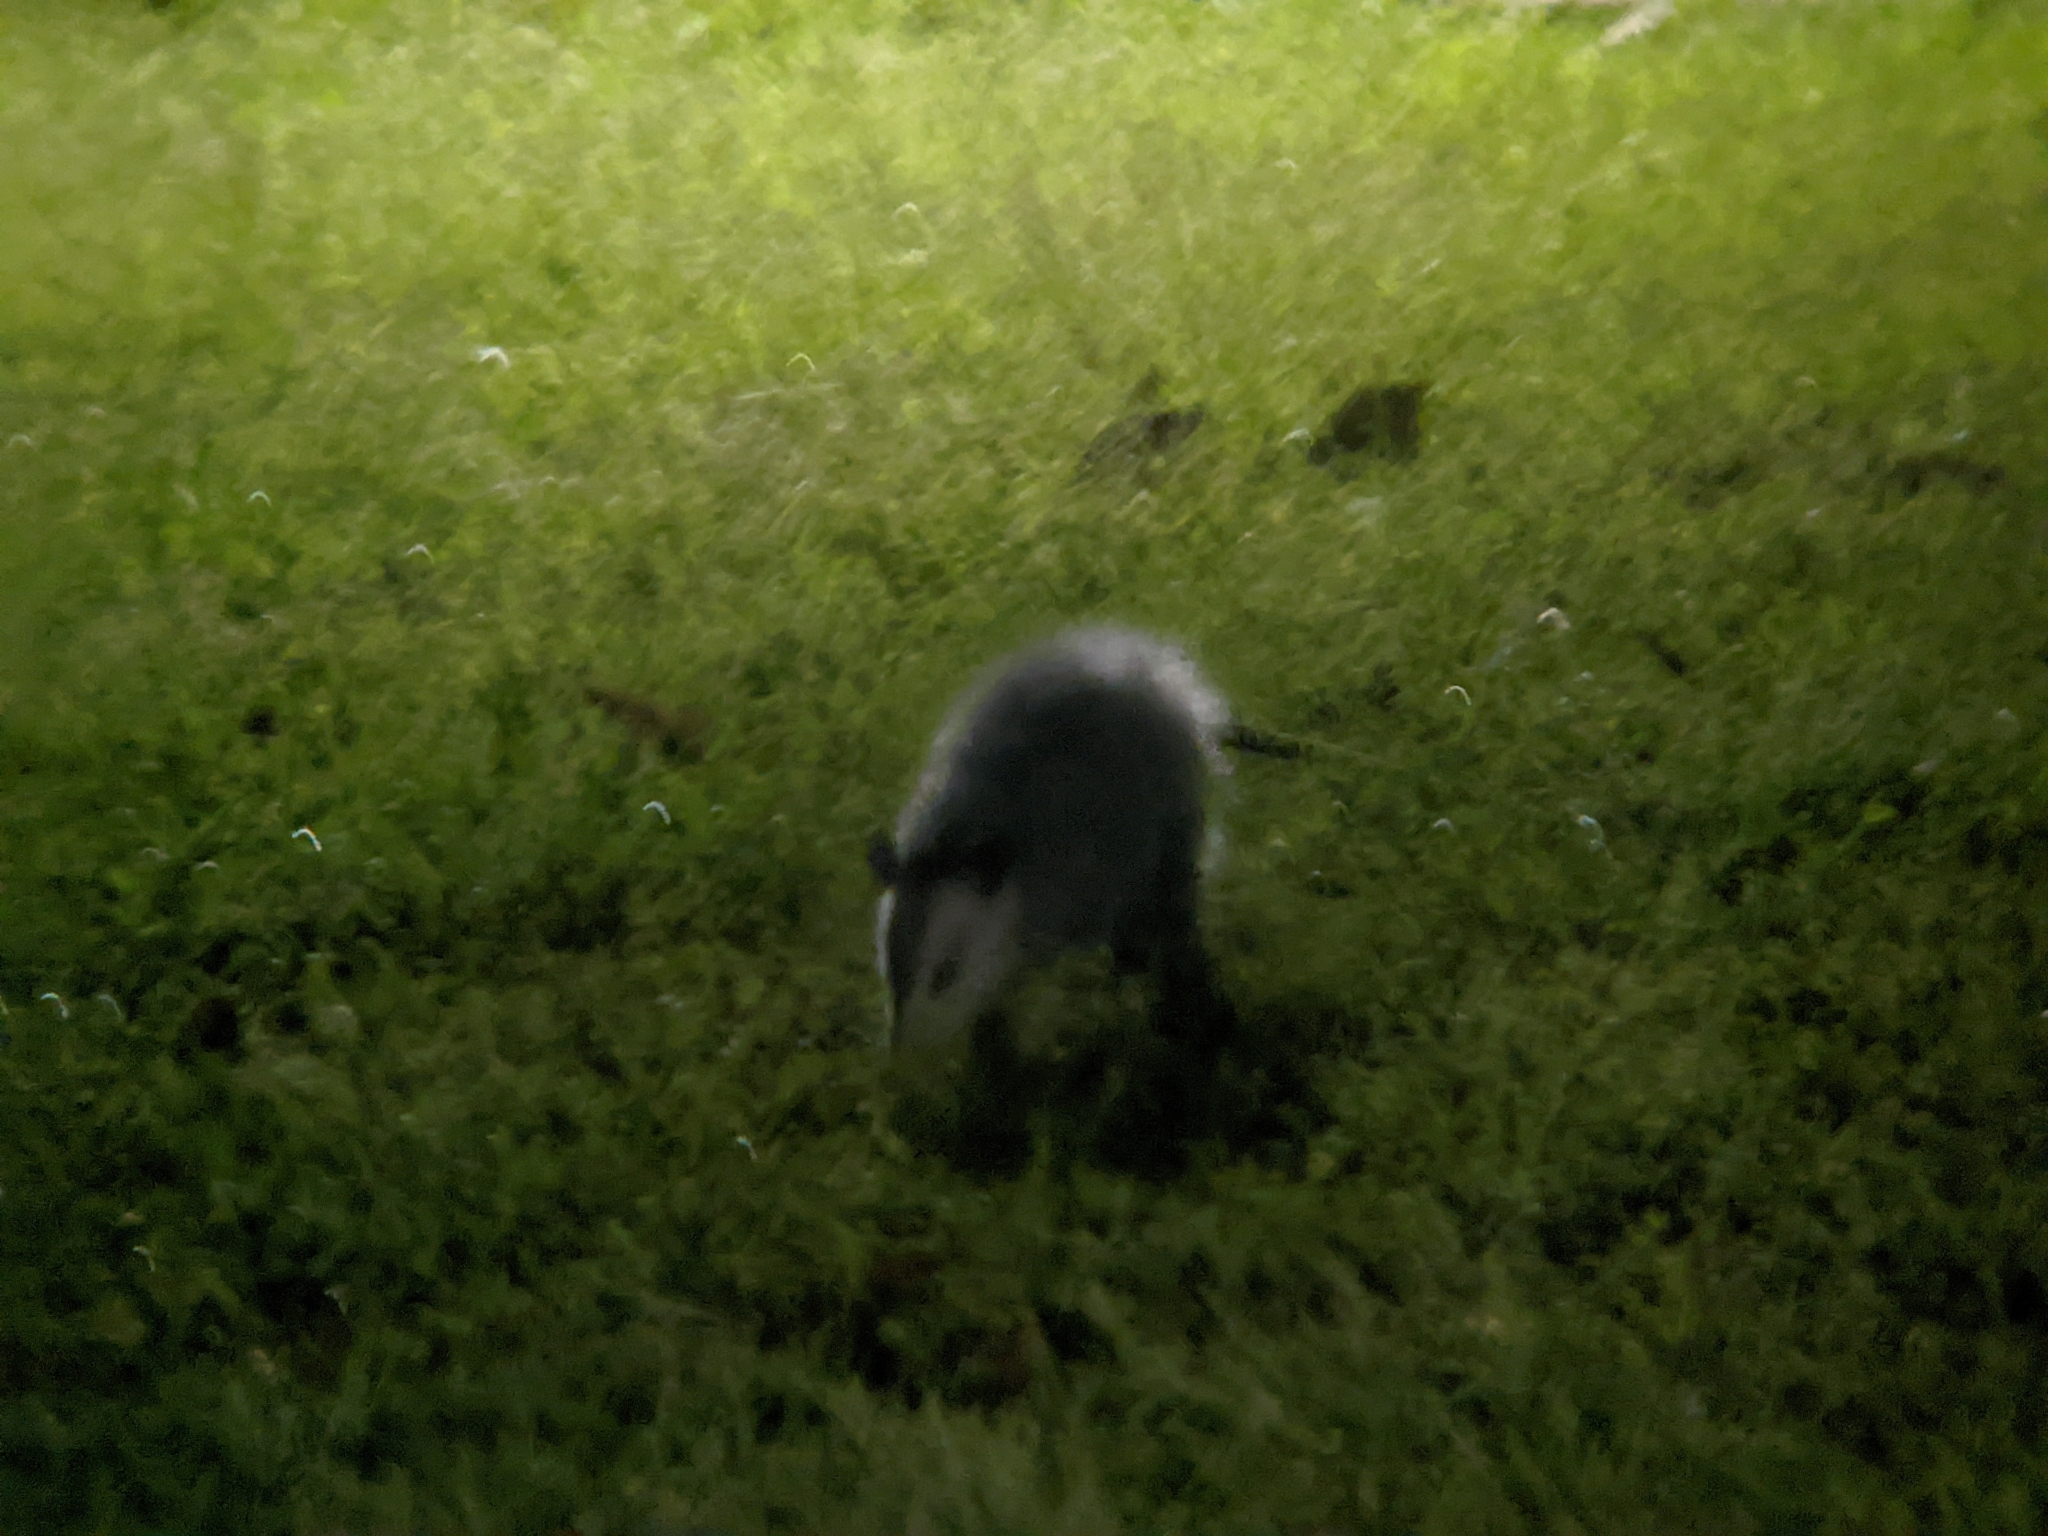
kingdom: Animalia
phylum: Chordata
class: Mammalia
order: Didelphimorphia
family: Didelphidae
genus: Didelphis
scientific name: Didelphis virginiana
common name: Virginia opossum
